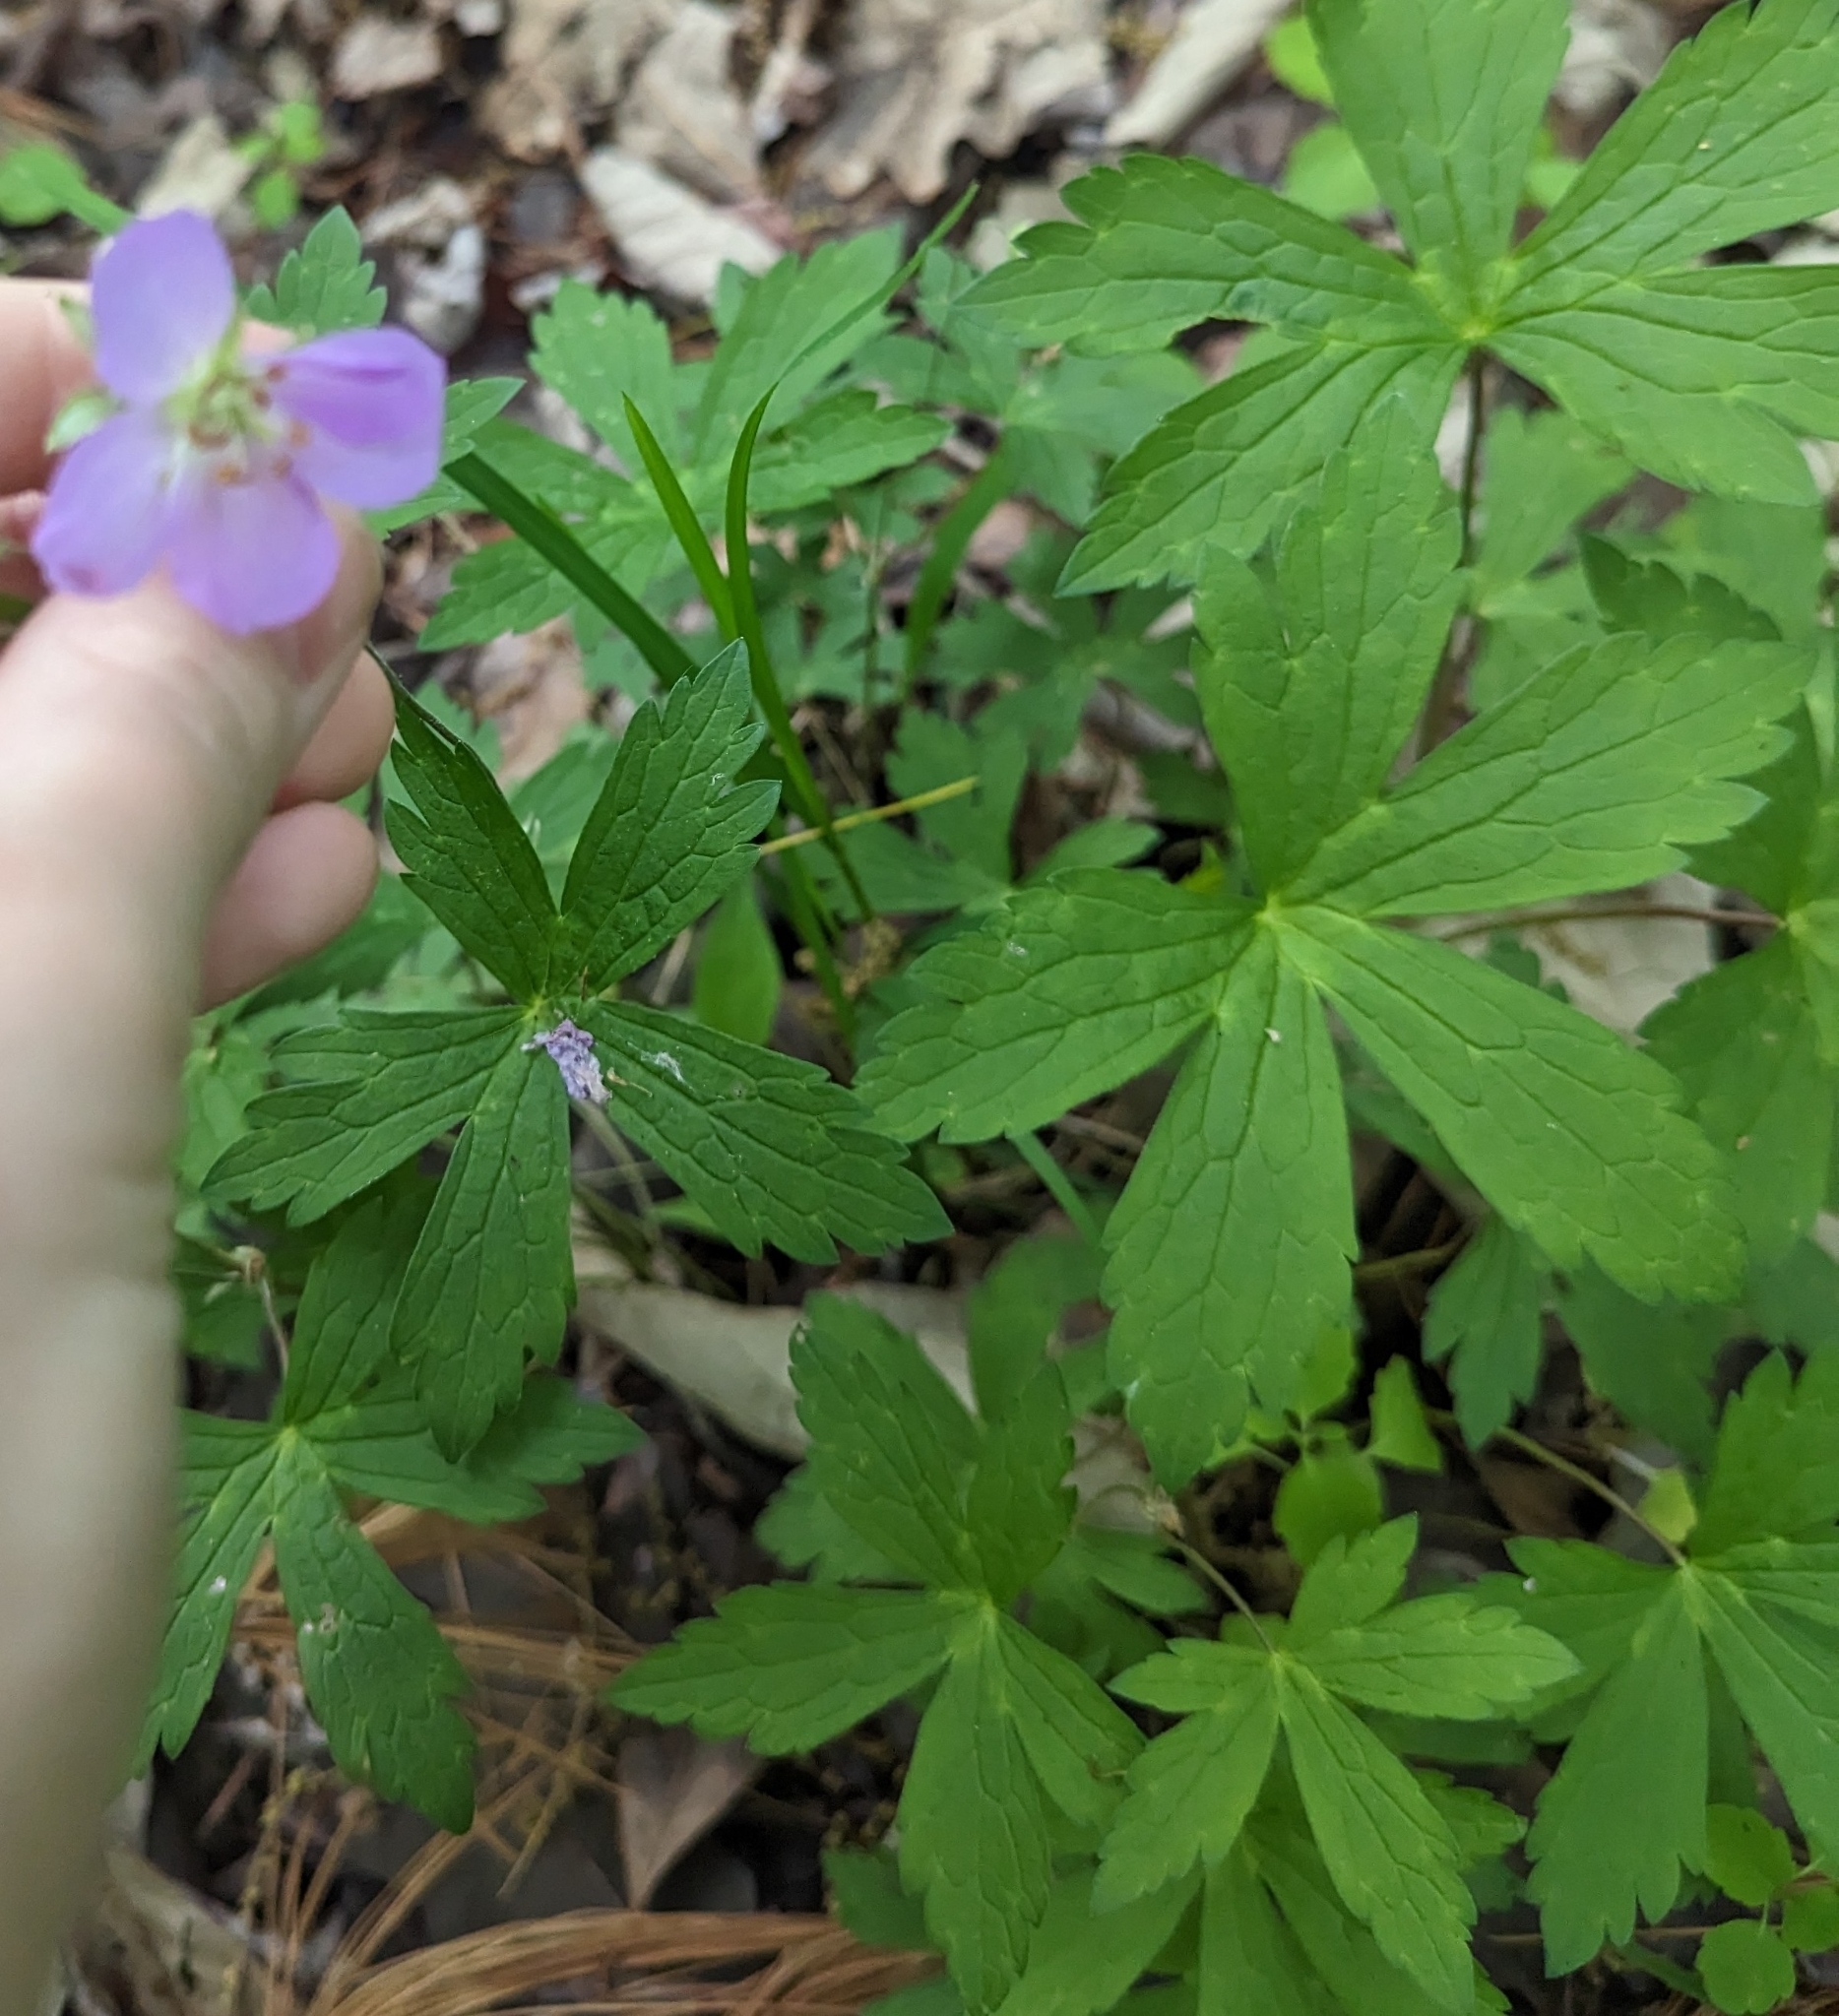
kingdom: Plantae
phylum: Tracheophyta
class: Magnoliopsida
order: Geraniales
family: Geraniaceae
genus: Geranium
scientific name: Geranium maculatum
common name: Spotted geranium
